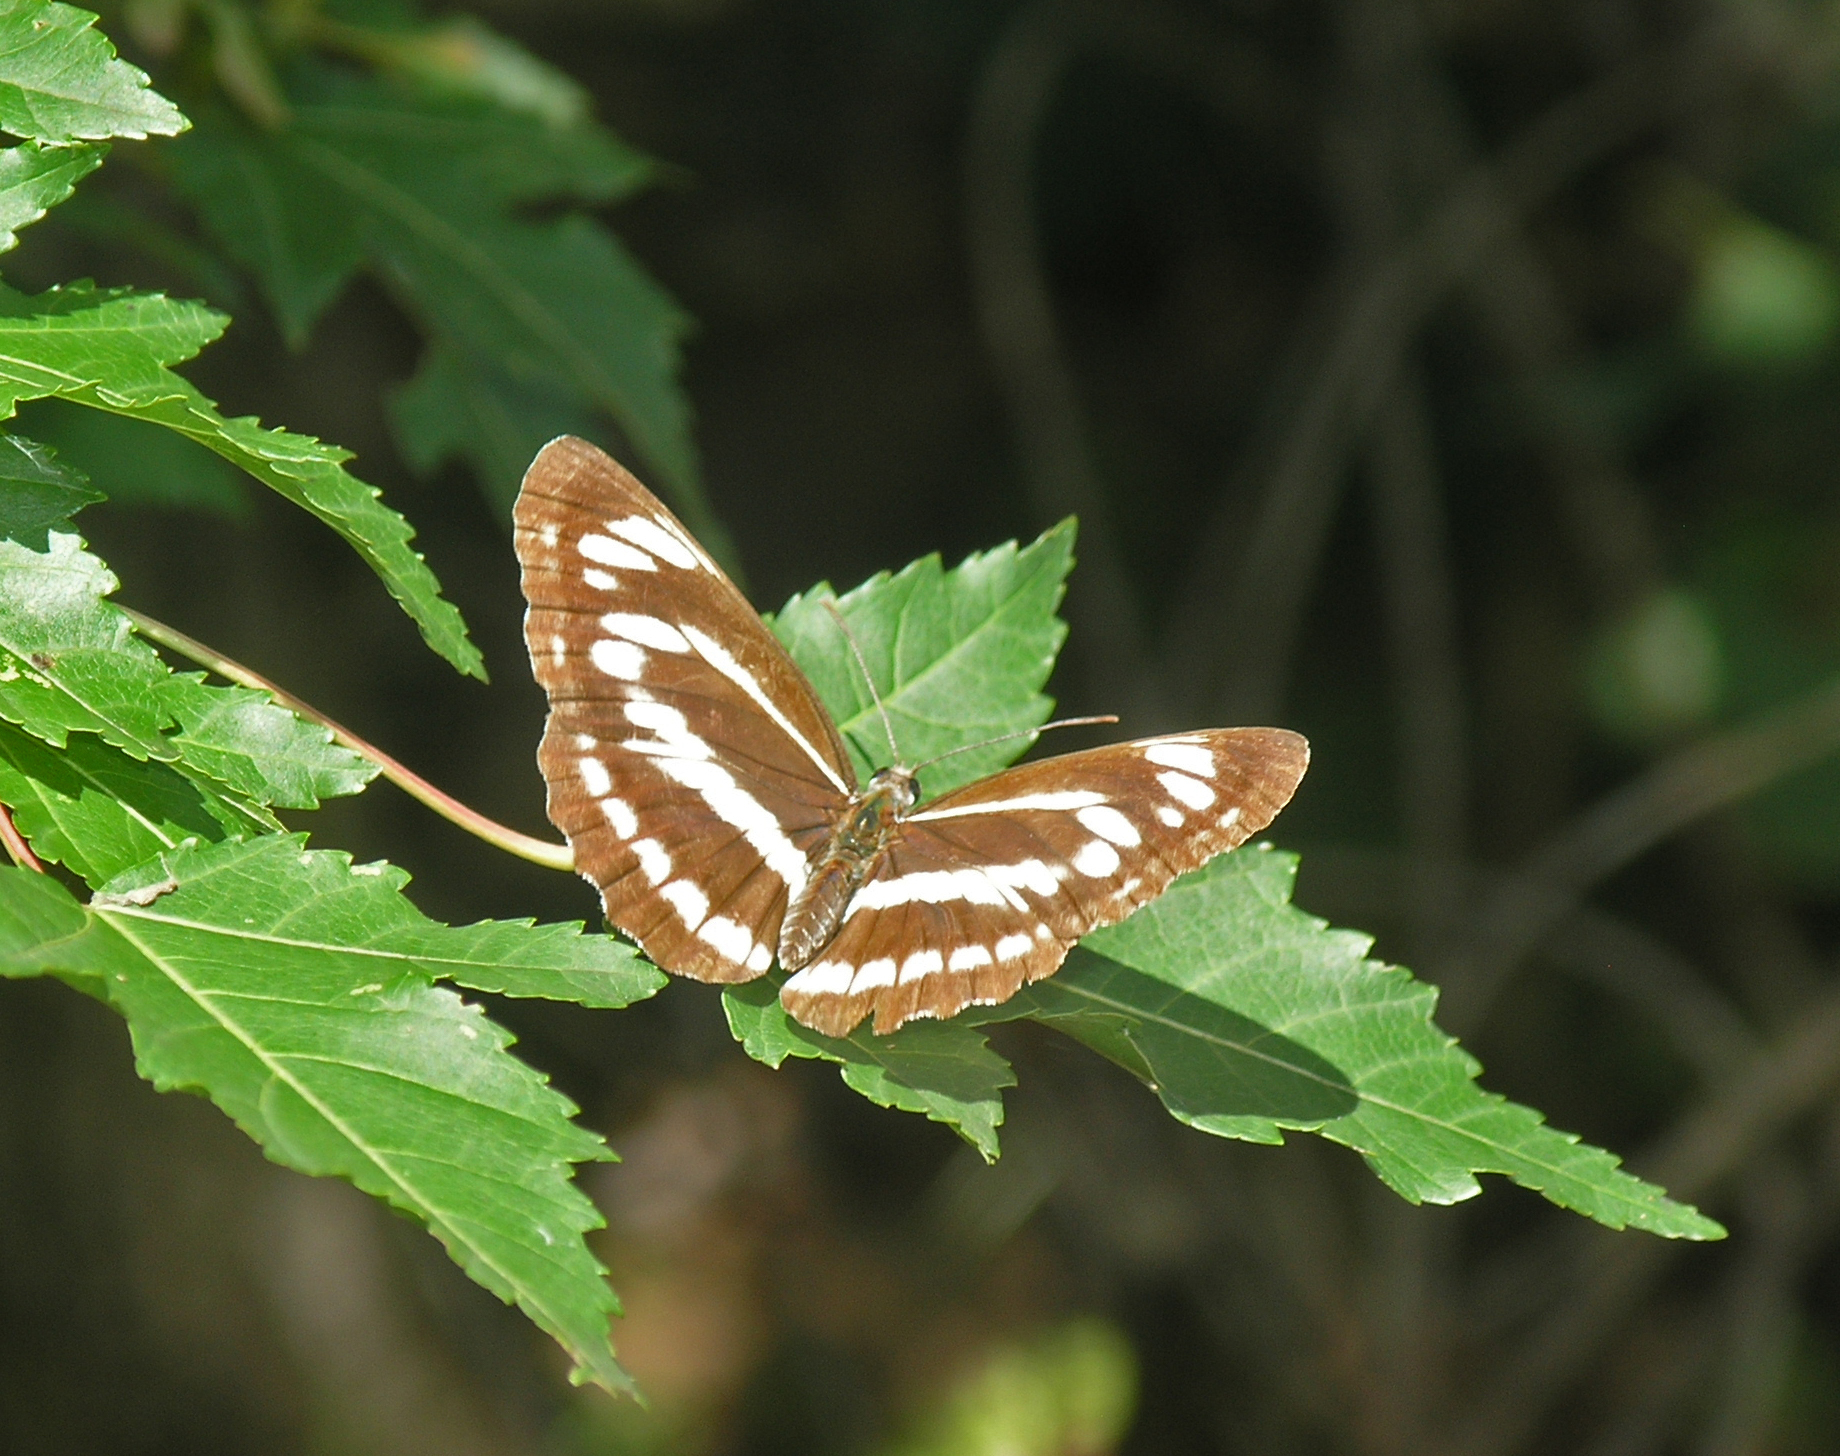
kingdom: Animalia
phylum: Arthropoda
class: Insecta
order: Lepidoptera
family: Nymphalidae
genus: Neptis
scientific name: Neptis philyra
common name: Long-streak sailor
